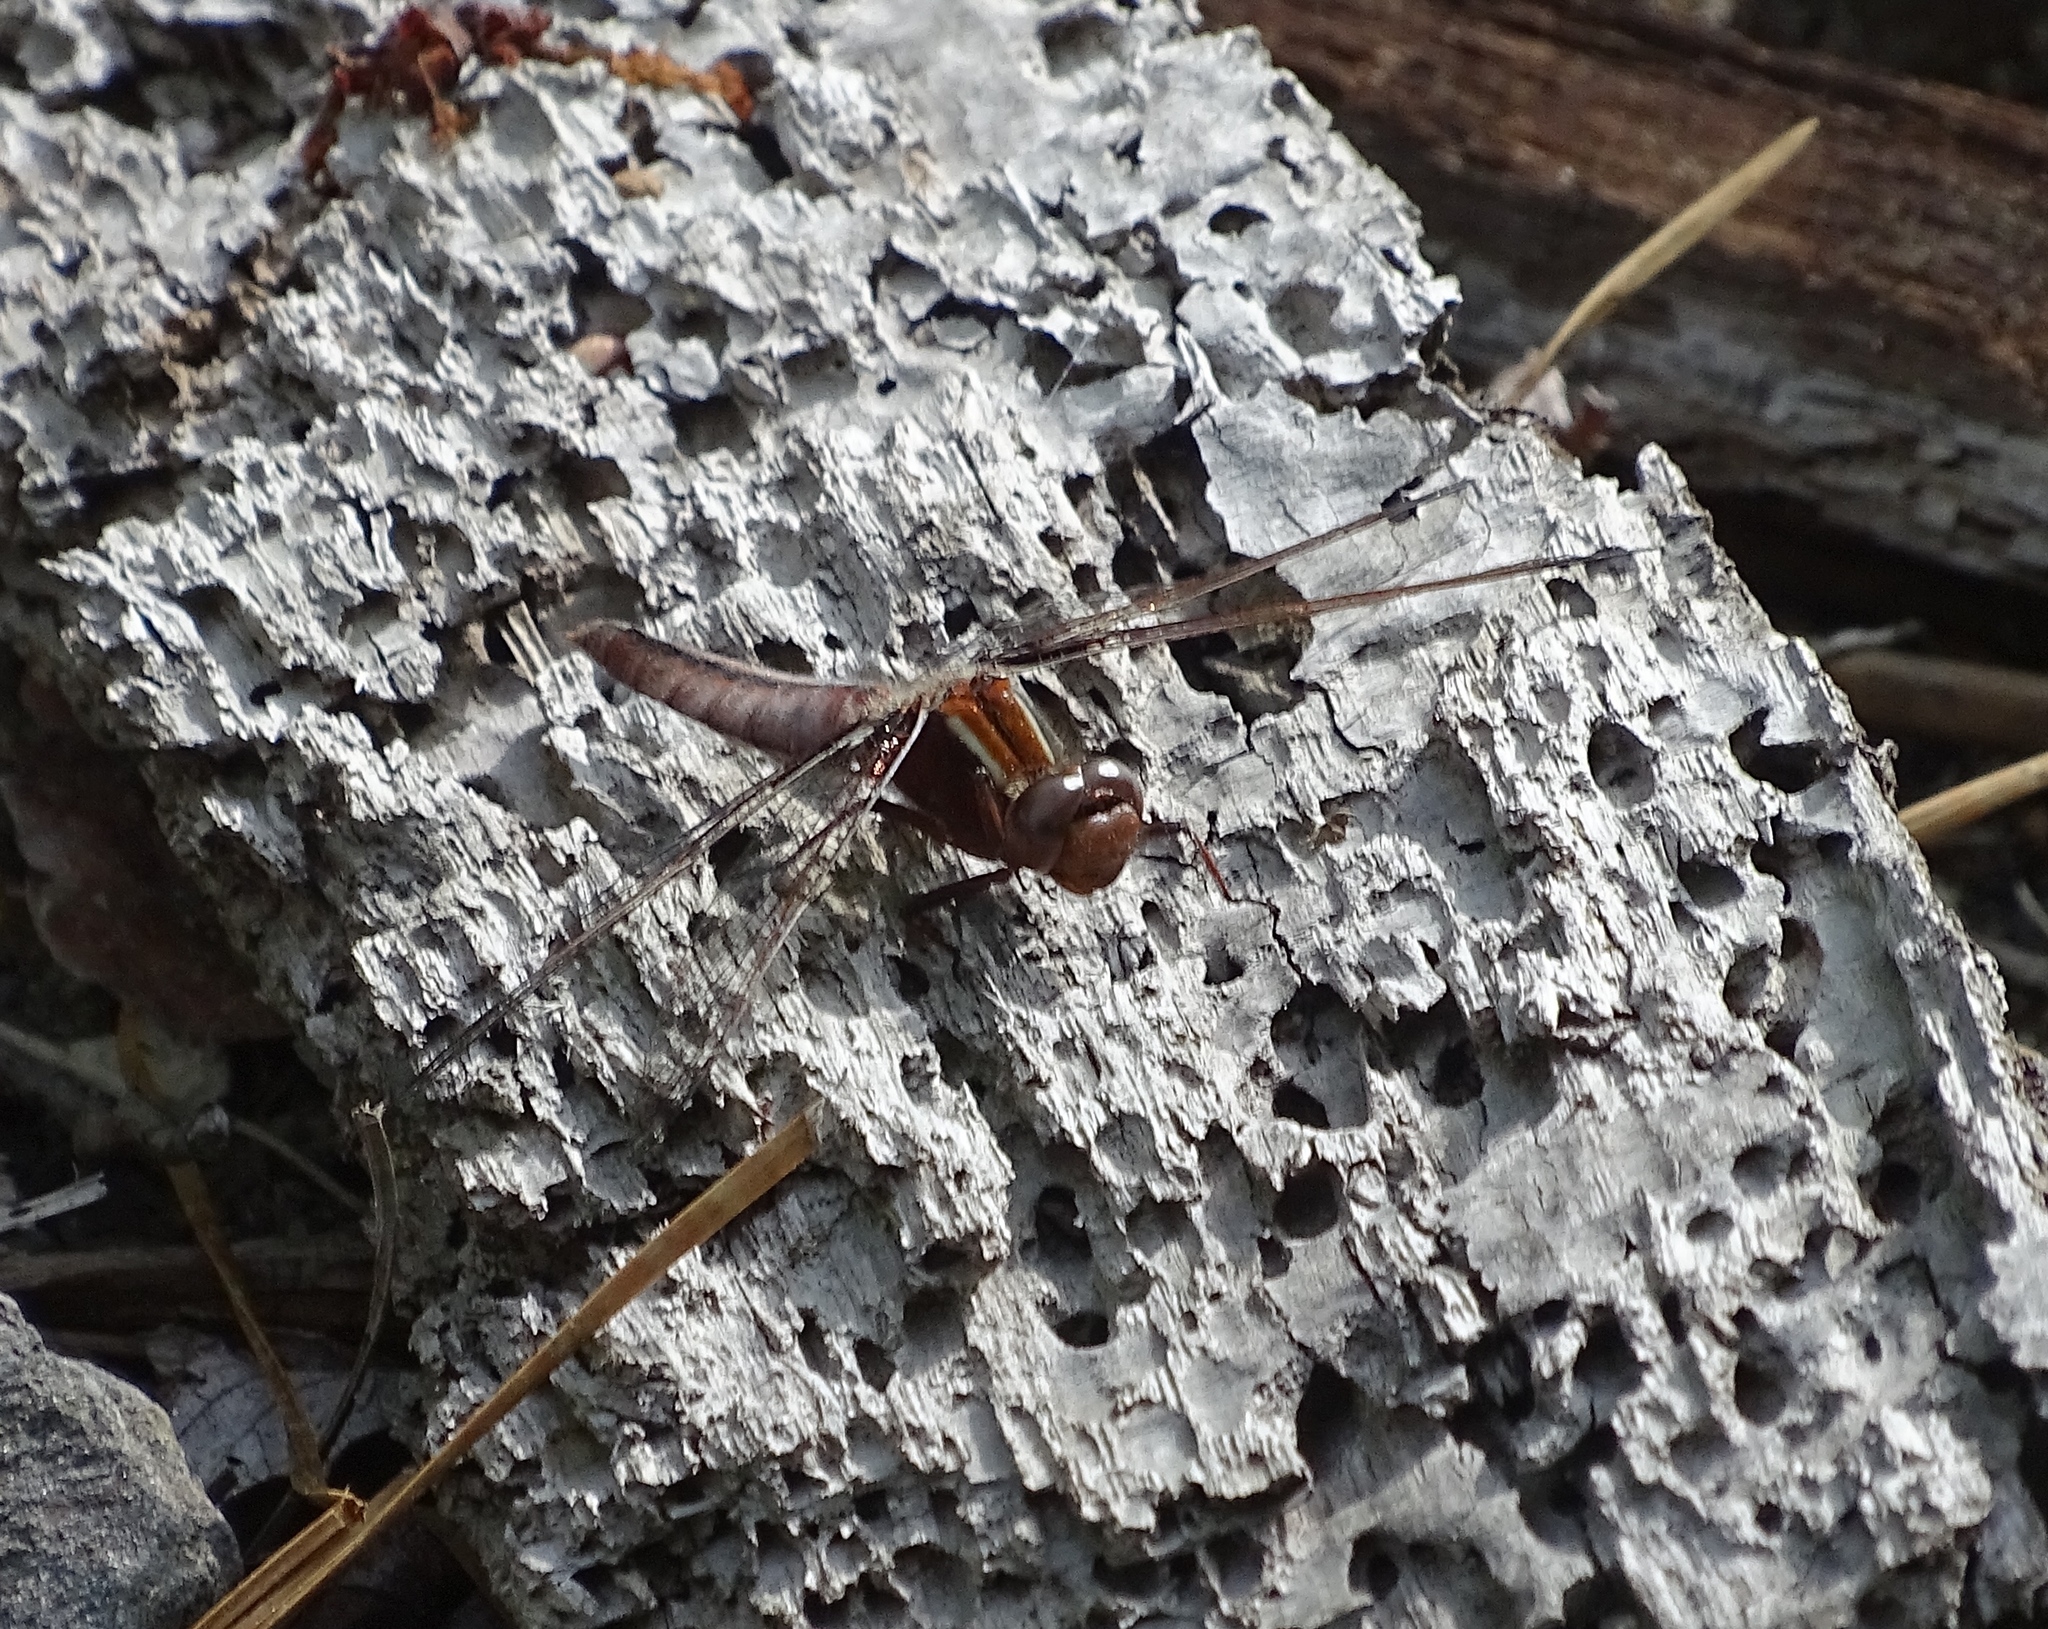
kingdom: Animalia
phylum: Arthropoda
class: Insecta
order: Odonata
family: Libellulidae
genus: Ladona
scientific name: Ladona exusta
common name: Libellule embrasée
